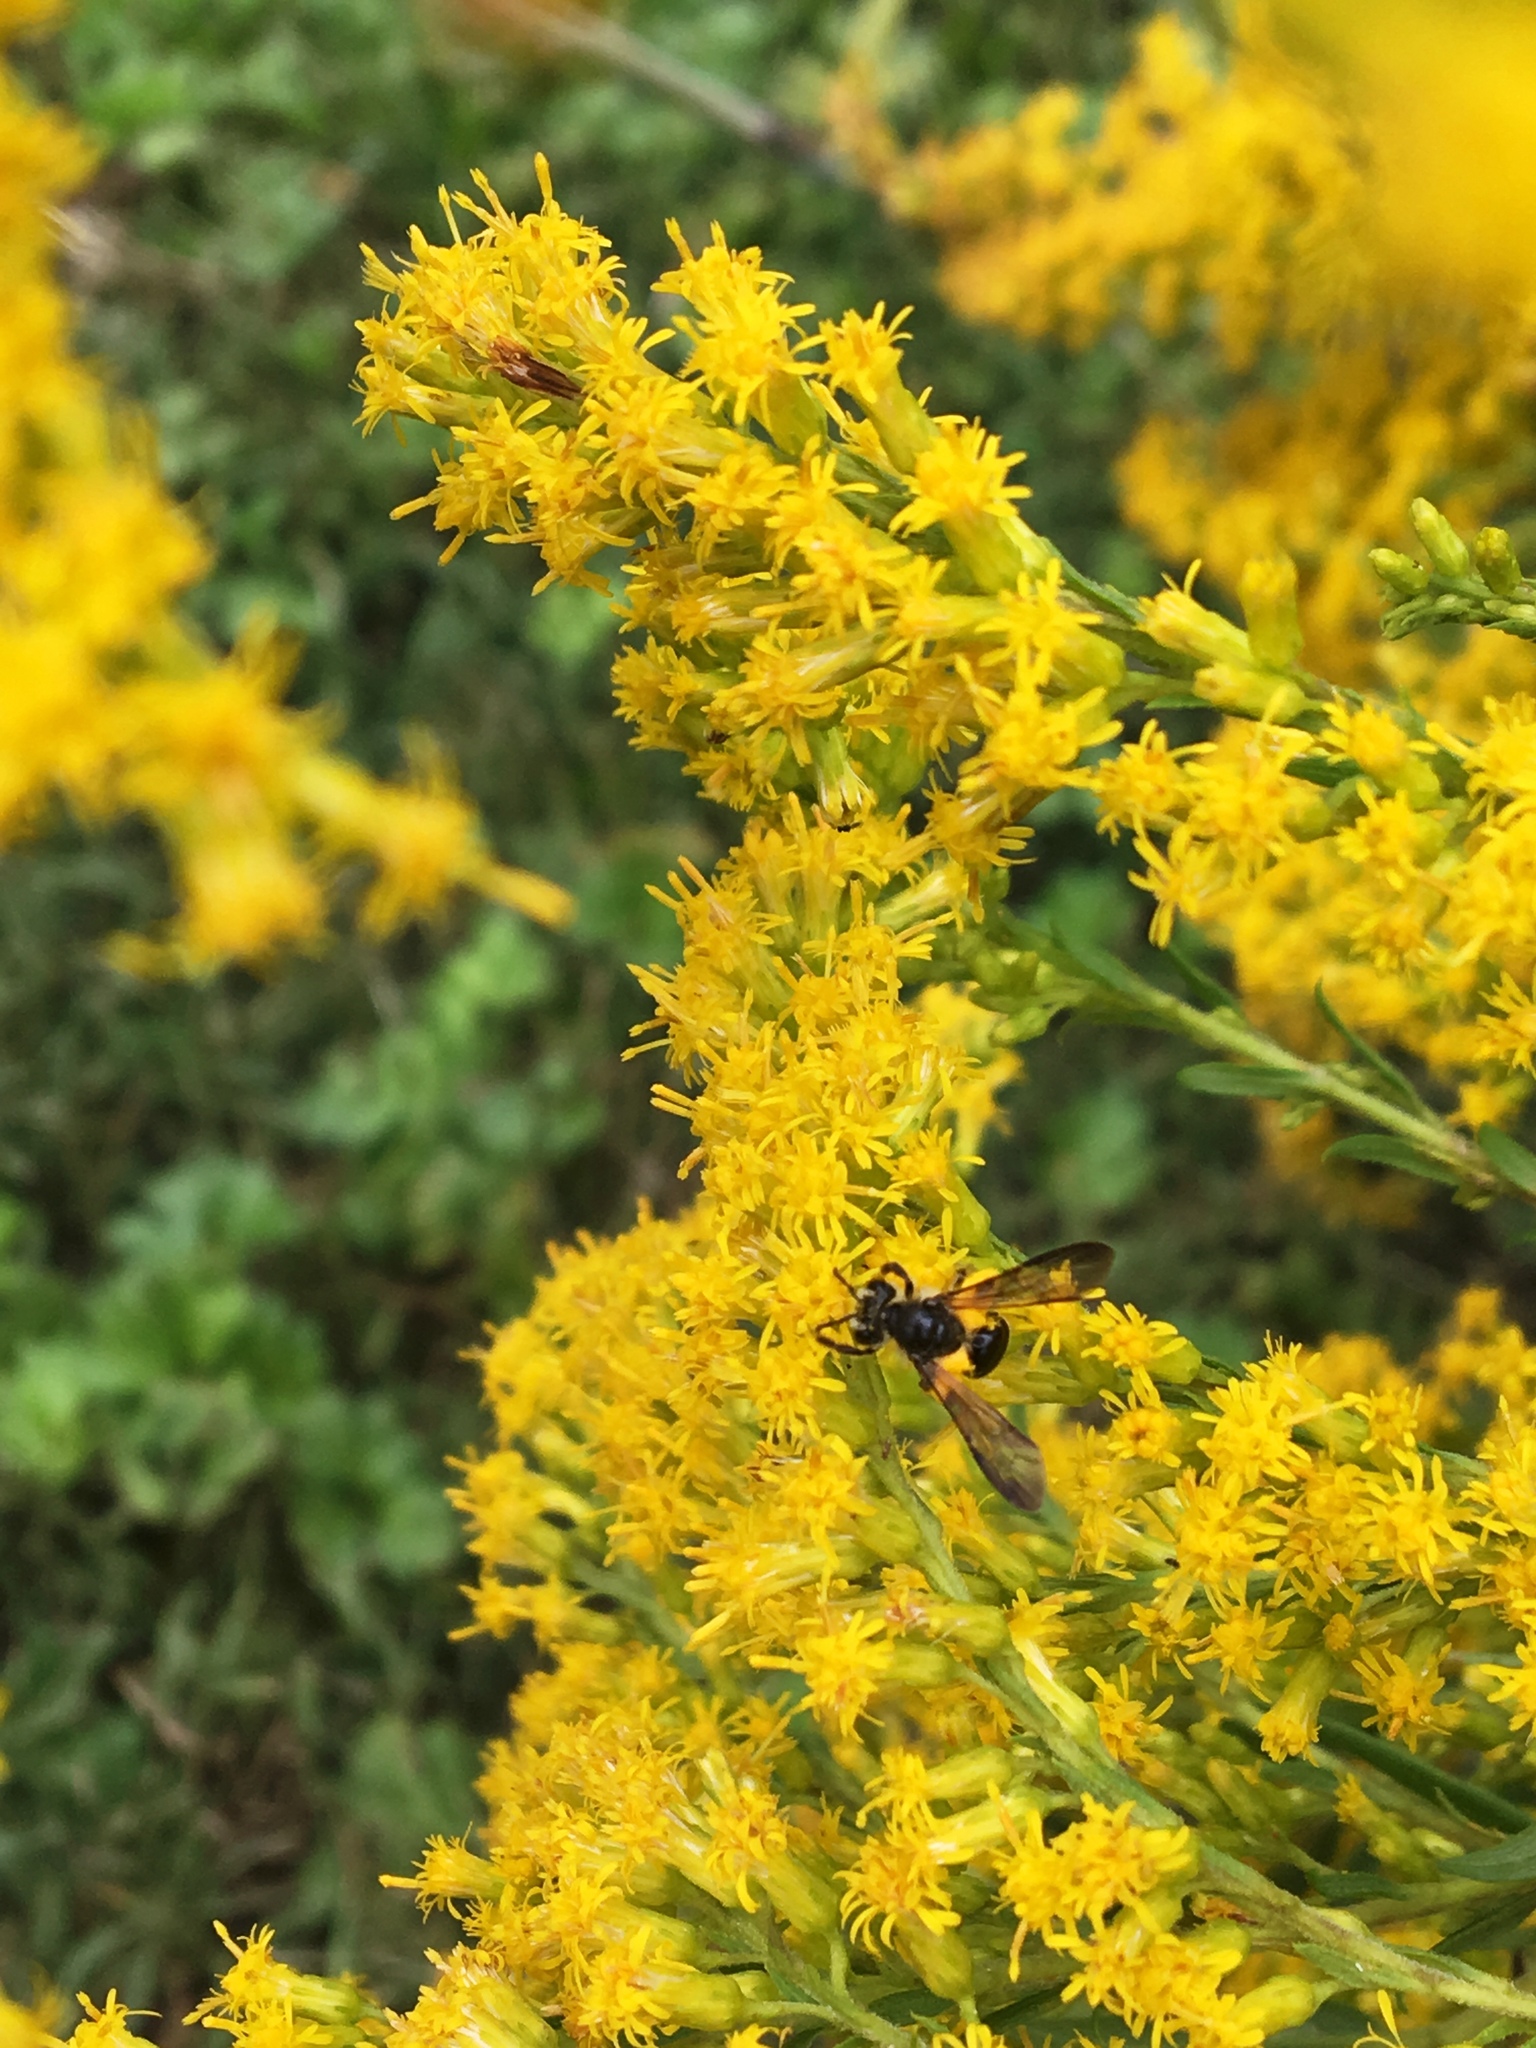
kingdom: Animalia
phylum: Arthropoda
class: Insecta
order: Hymenoptera
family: Andrenidae
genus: Andrena
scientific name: Andrena nubecula
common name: Cloudy-winged mining bee
